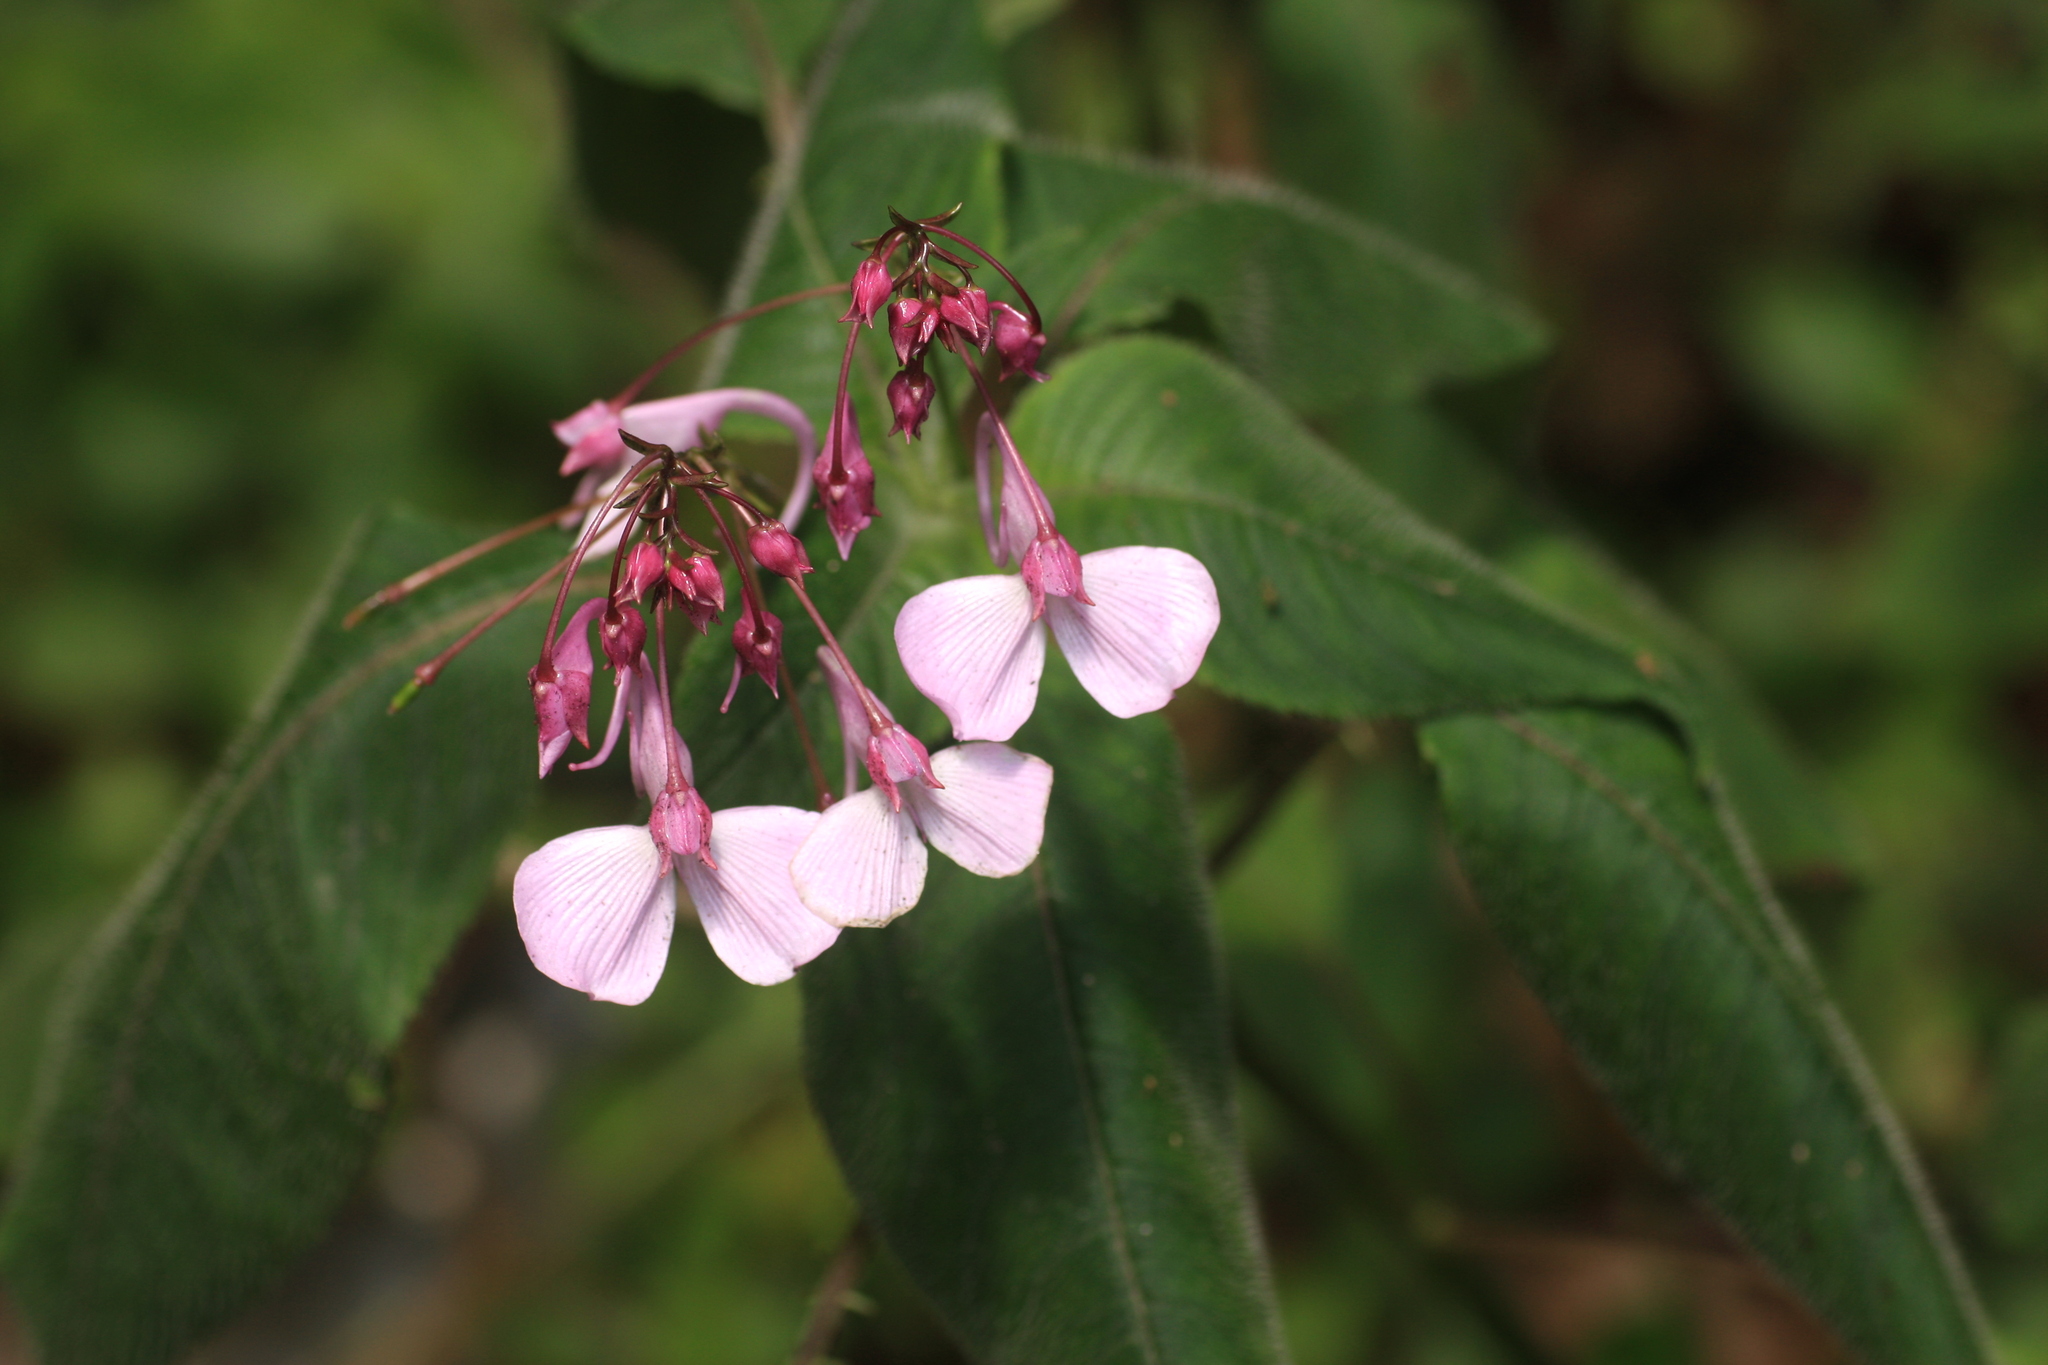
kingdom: Plantae
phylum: Tracheophyta
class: Magnoliopsida
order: Ericales
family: Balsaminaceae
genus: Impatiens
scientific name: Impatiens maculata
